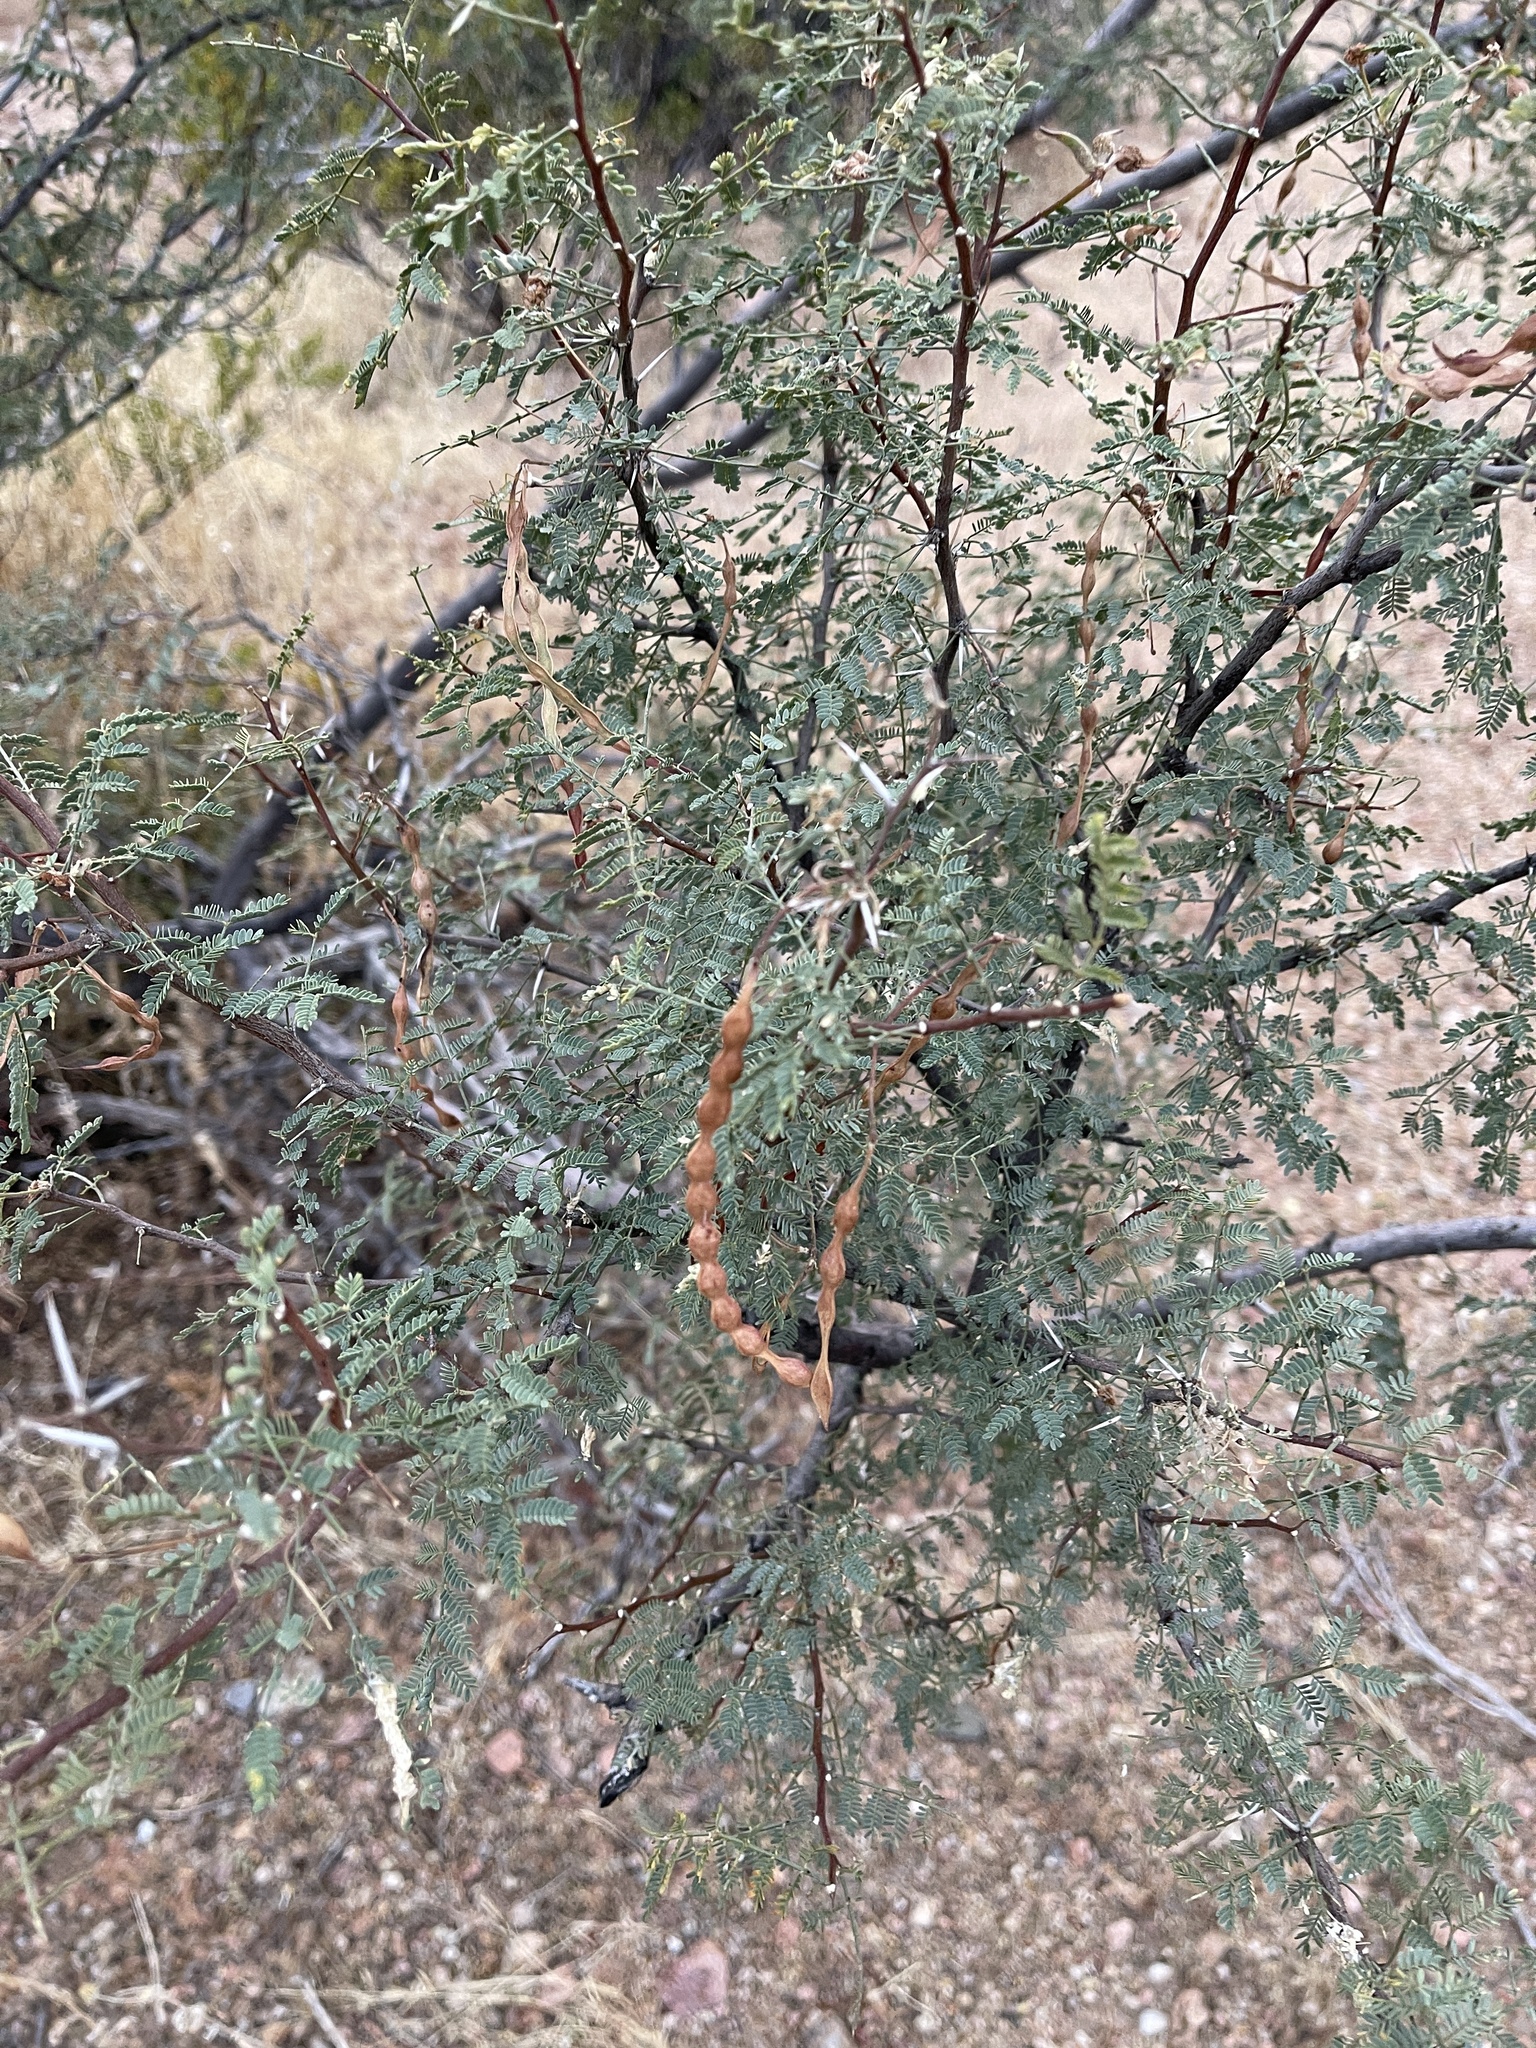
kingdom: Plantae
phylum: Tracheophyta
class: Magnoliopsida
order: Fabales
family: Fabaceae
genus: Vachellia
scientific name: Vachellia constricta
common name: Mescat acacia
